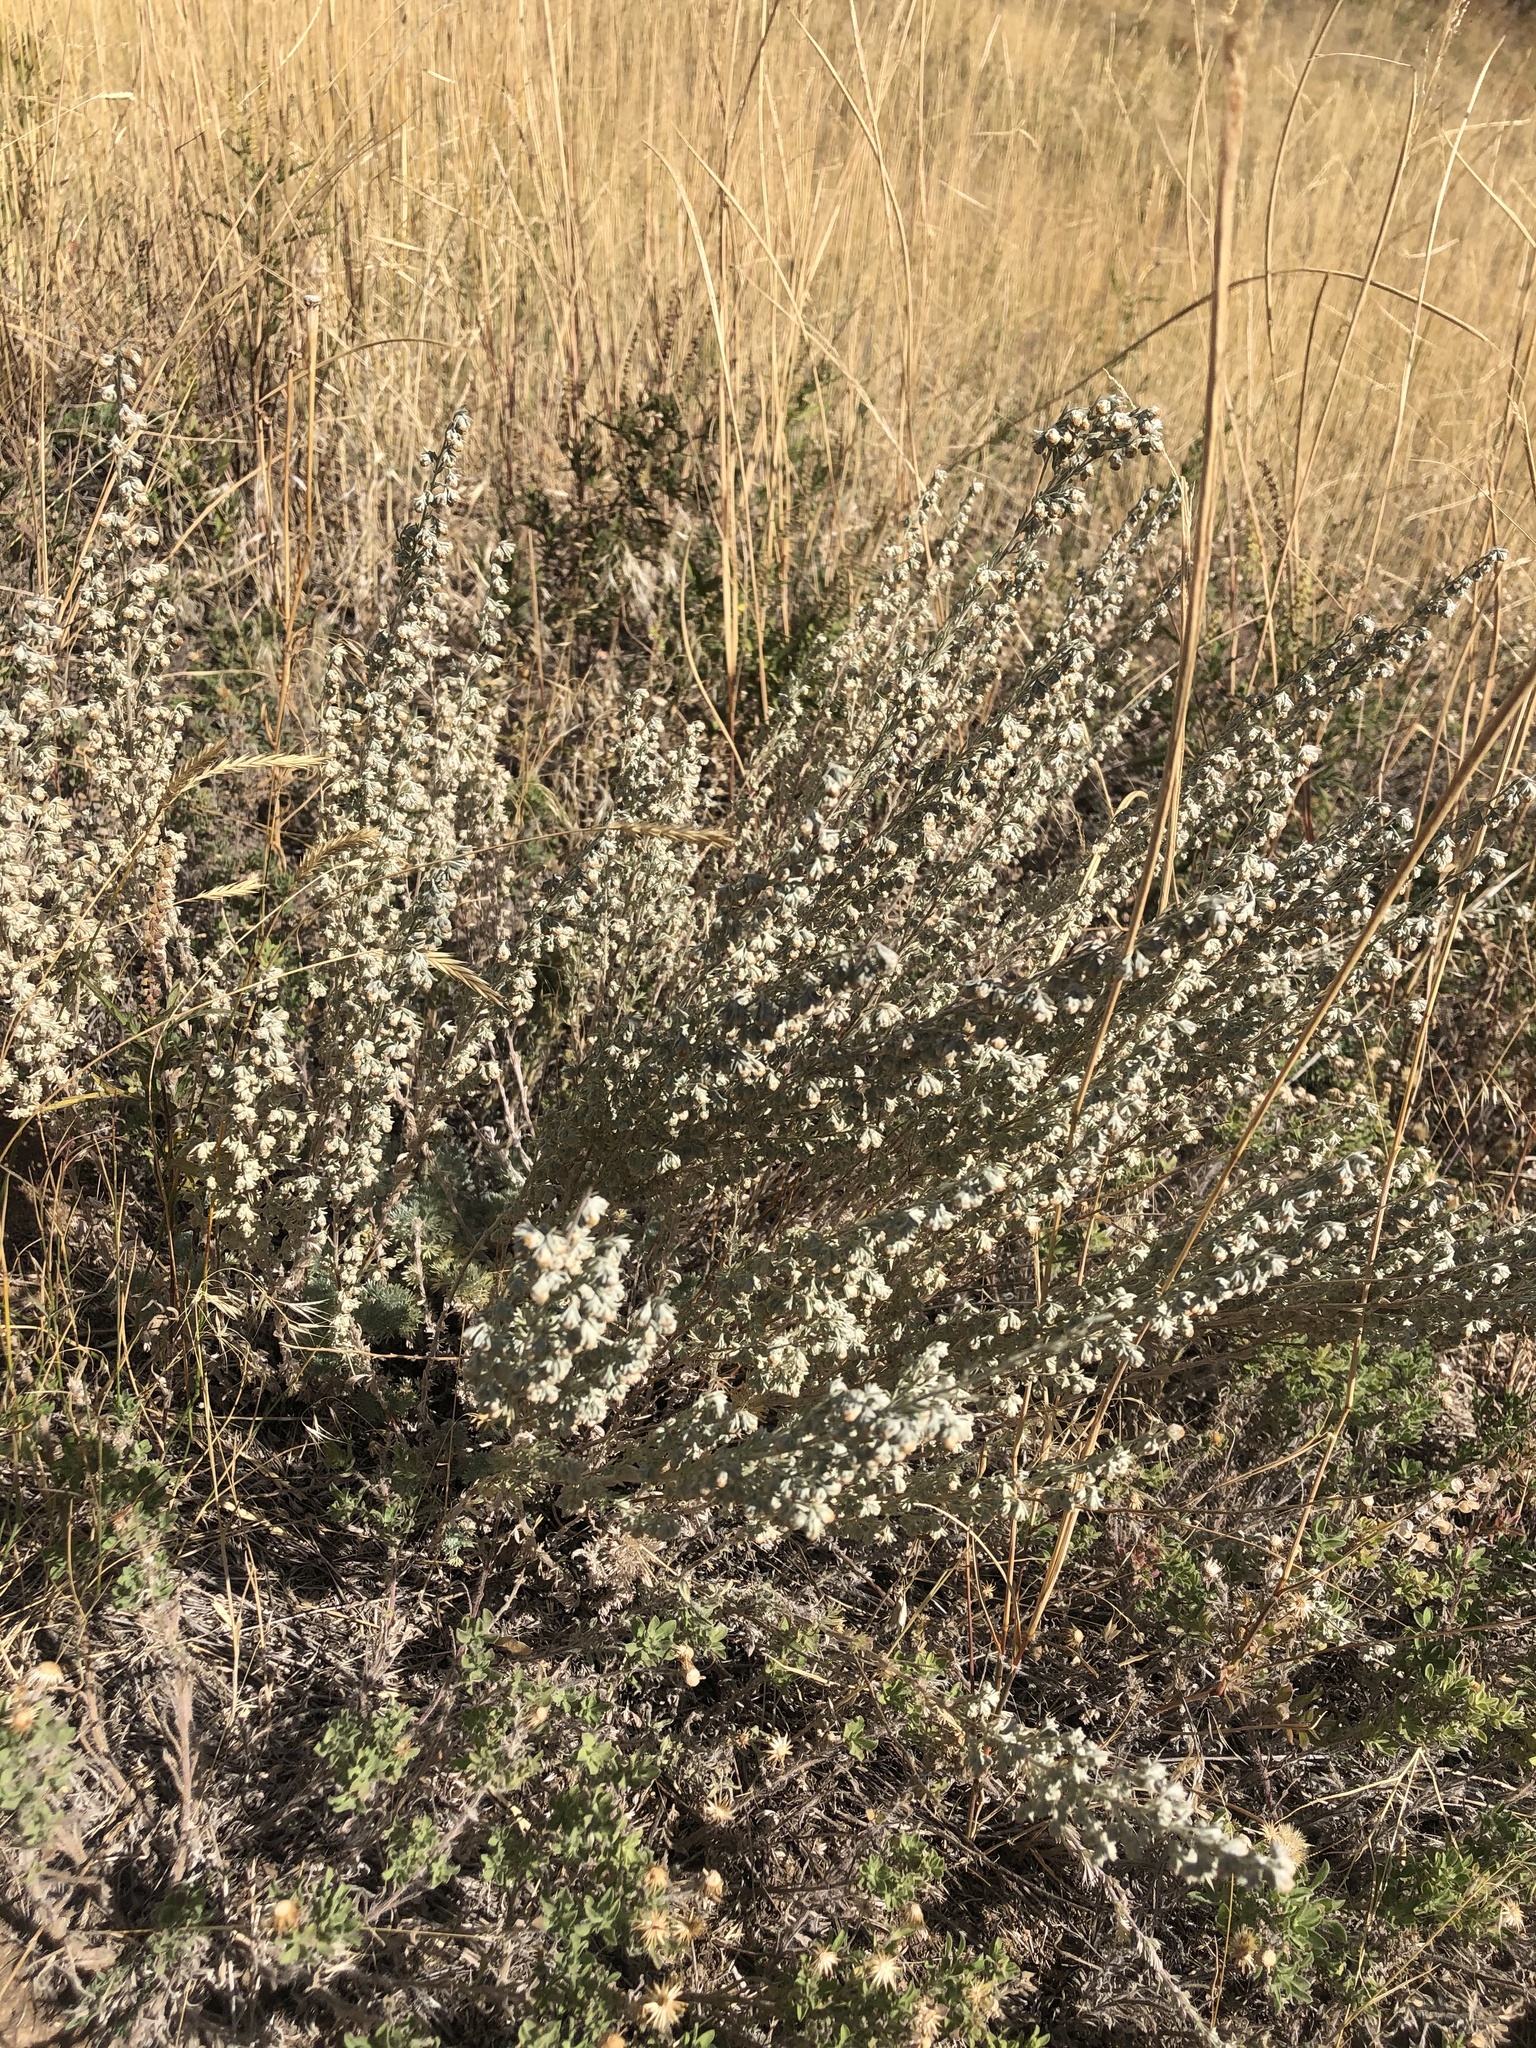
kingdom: Plantae
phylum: Tracheophyta
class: Magnoliopsida
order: Asterales
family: Asteraceae
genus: Artemisia
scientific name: Artemisia frigida
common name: Prairie sagewort
